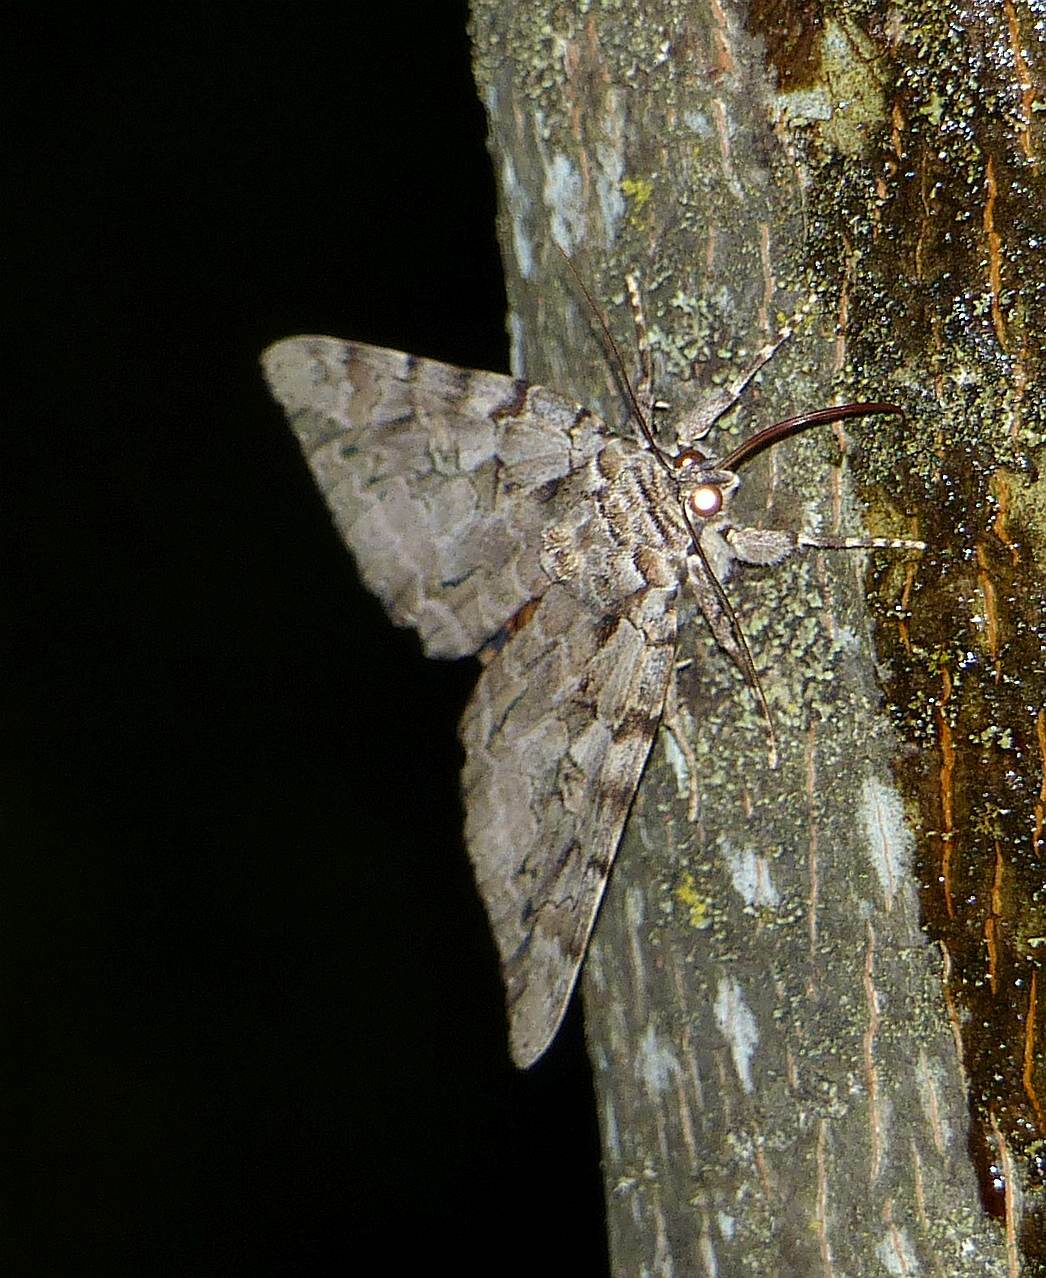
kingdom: Animalia
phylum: Arthropoda
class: Insecta
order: Lepidoptera
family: Erebidae
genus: Catocala
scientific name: Catocala subnata
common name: Youthful underwing
